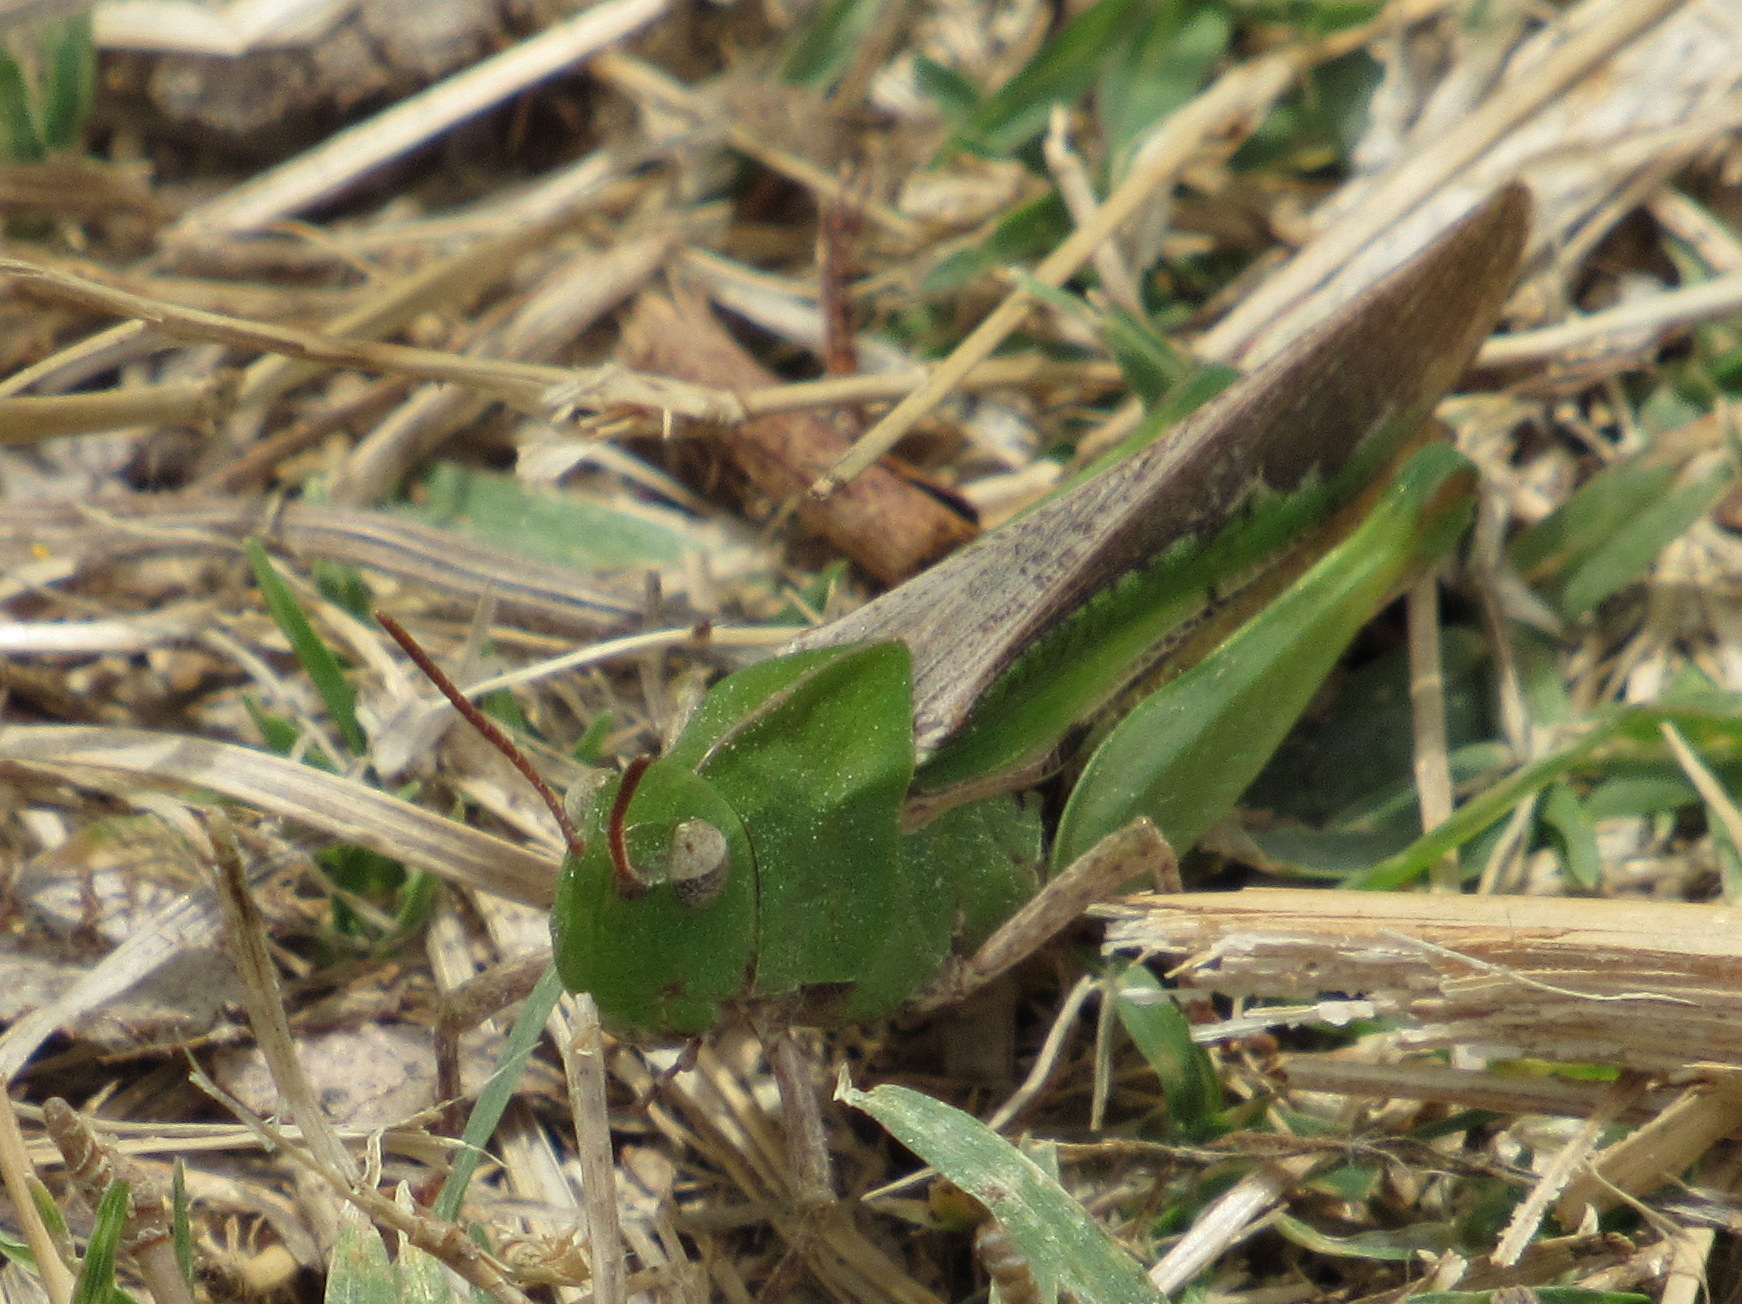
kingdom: Animalia
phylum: Arthropoda
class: Insecta
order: Orthoptera
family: Acrididae
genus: Chortophaga
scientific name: Chortophaga viridifasciata
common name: Green-striped grasshopper
